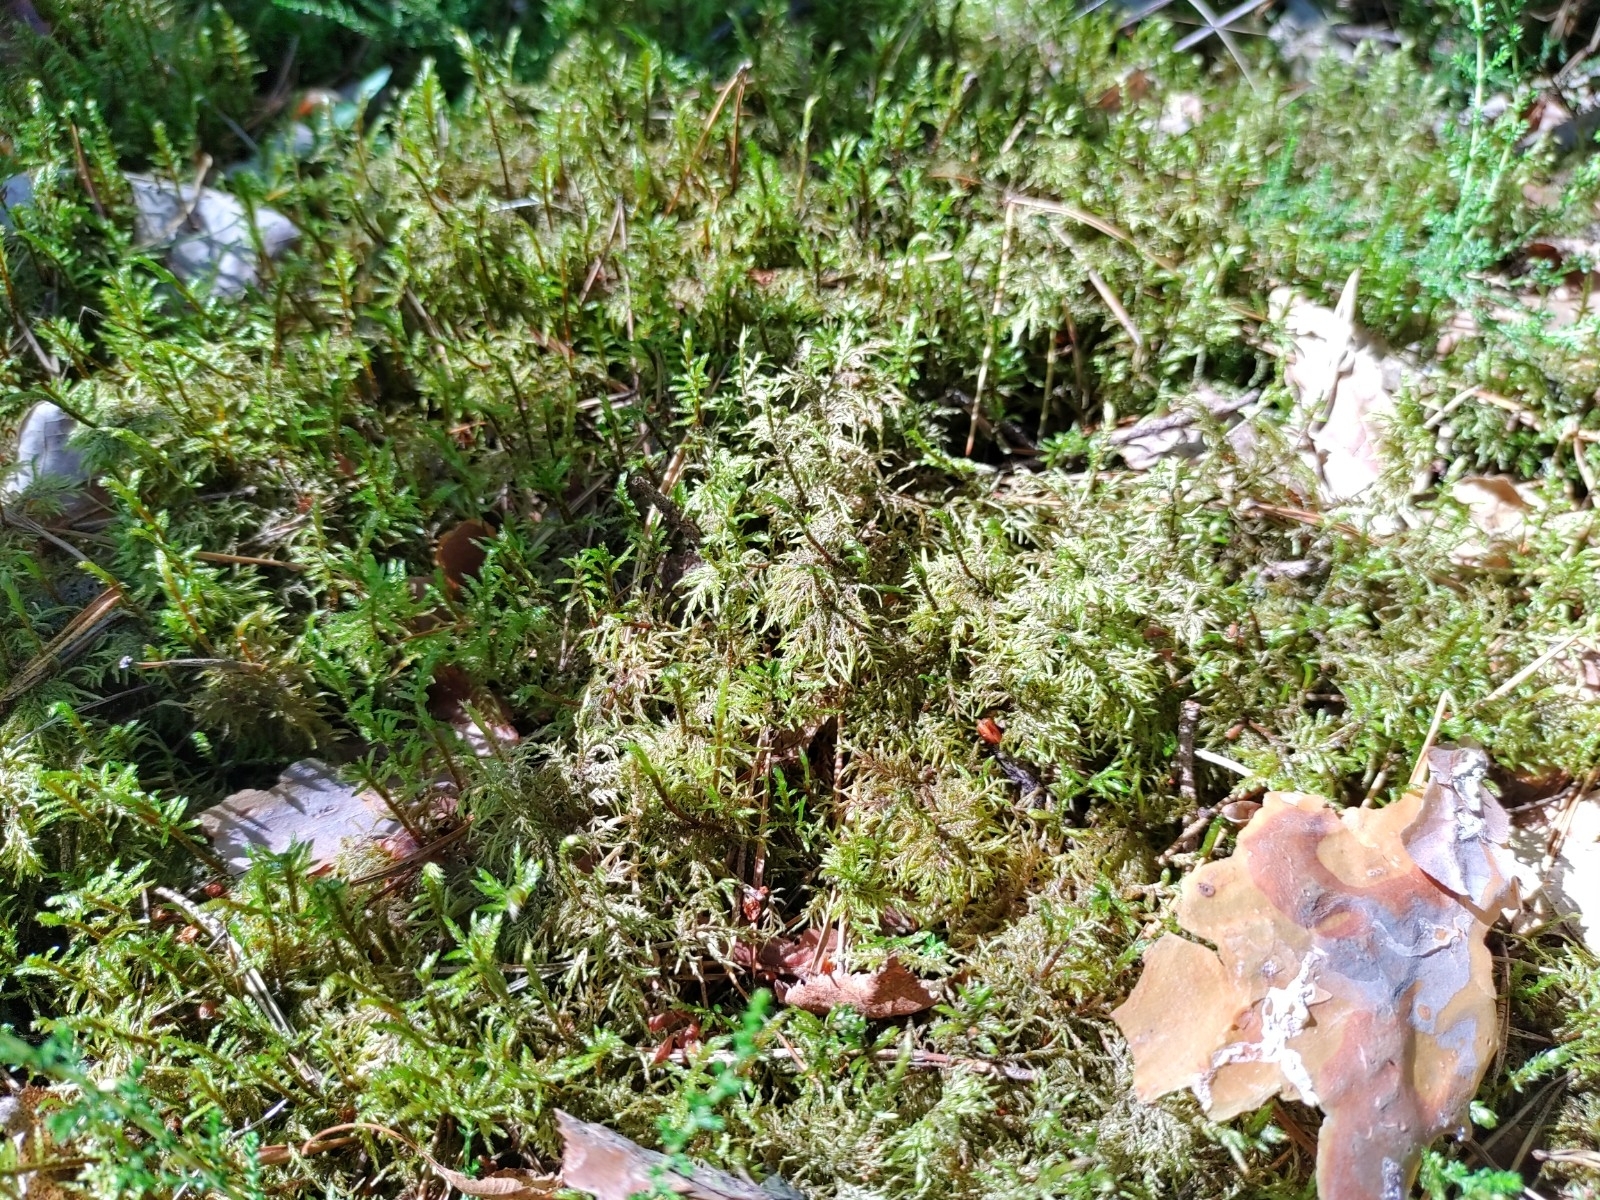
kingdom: Plantae
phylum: Bryophyta
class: Bryopsida
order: Hypnales
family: Hylocomiaceae
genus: Hylocomium
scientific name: Hylocomium splendens
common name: Stairstep moss
